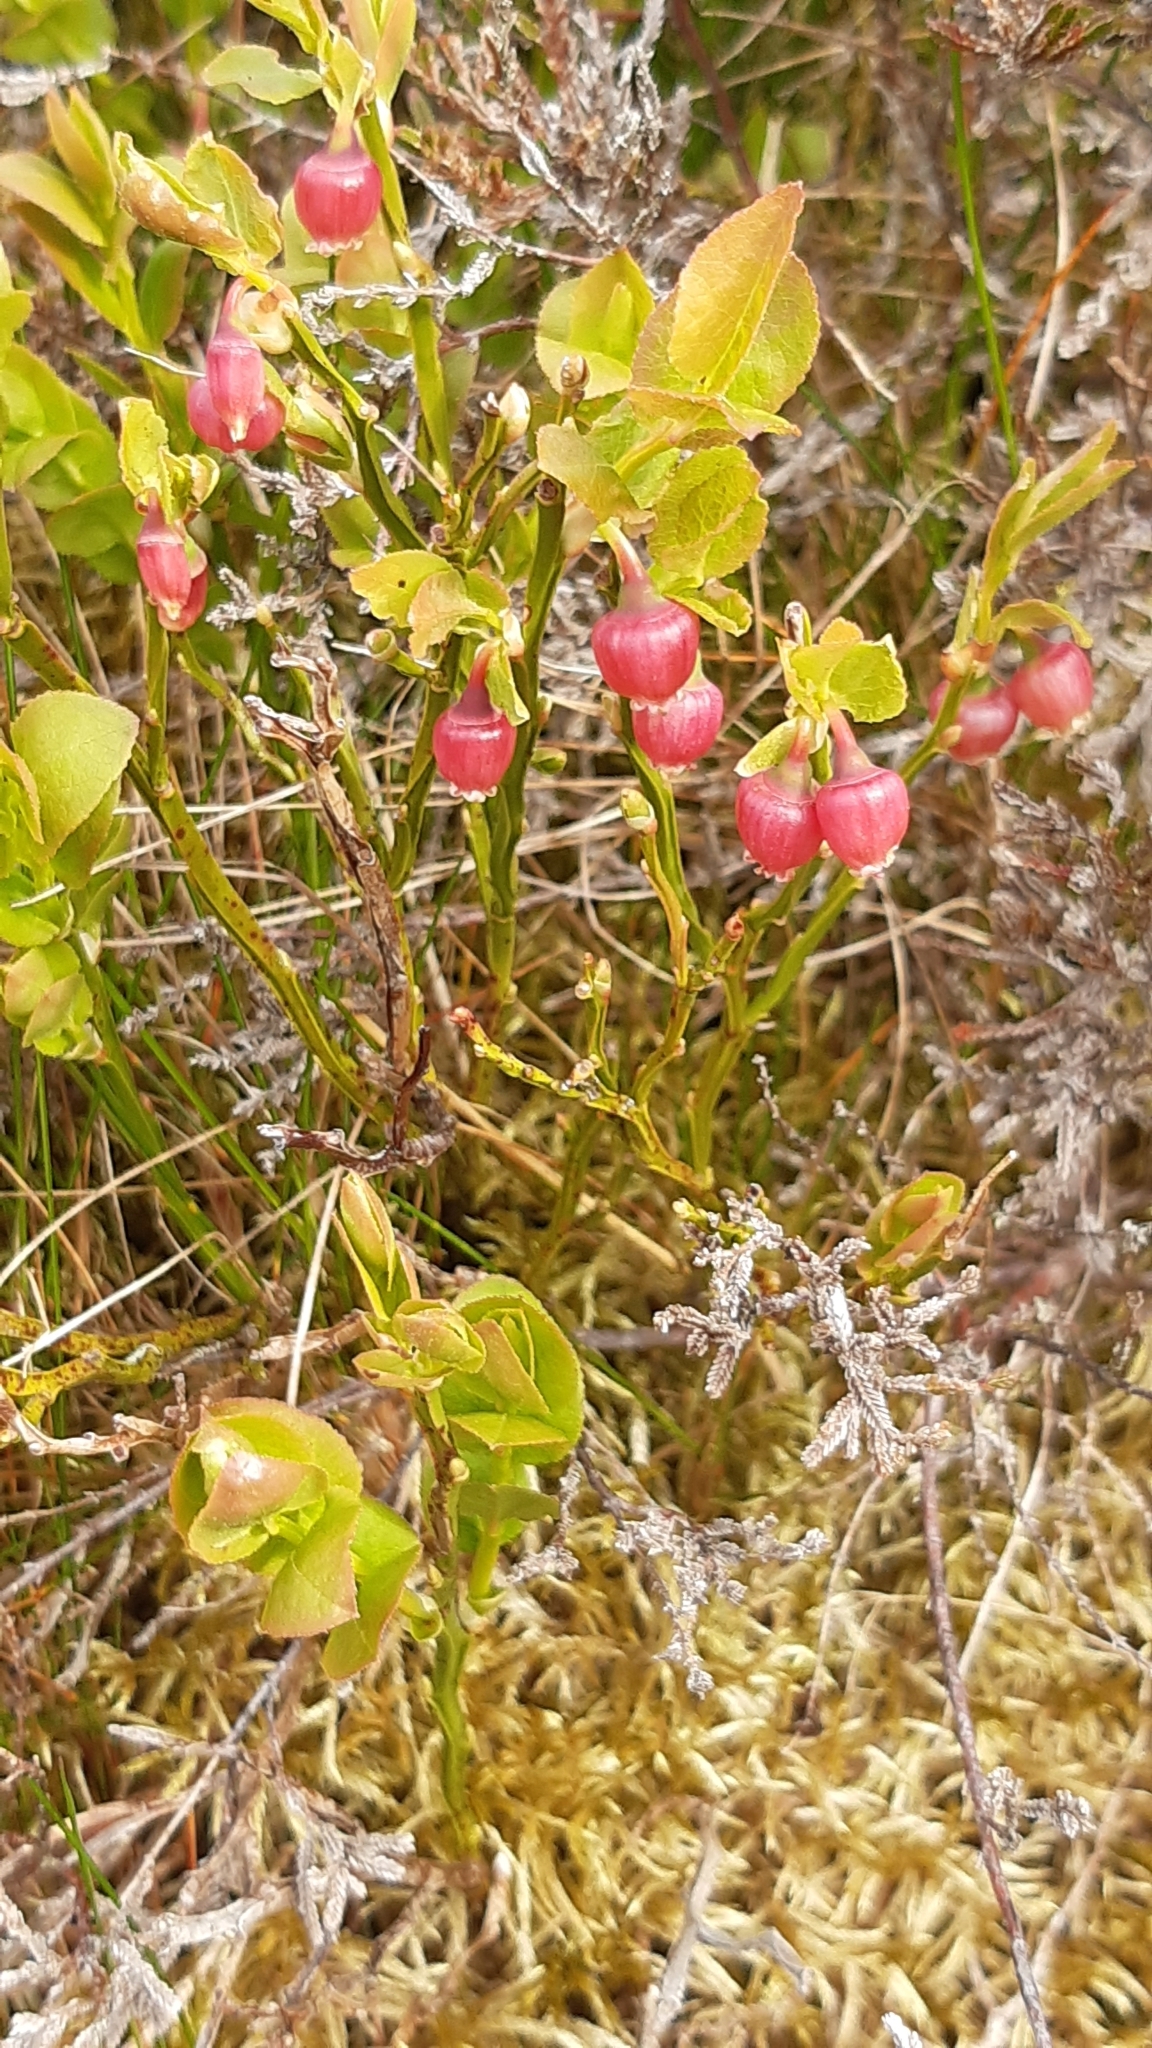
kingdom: Plantae
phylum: Tracheophyta
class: Magnoliopsida
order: Ericales
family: Ericaceae
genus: Vaccinium
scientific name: Vaccinium myrtillus
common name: Bilberry
